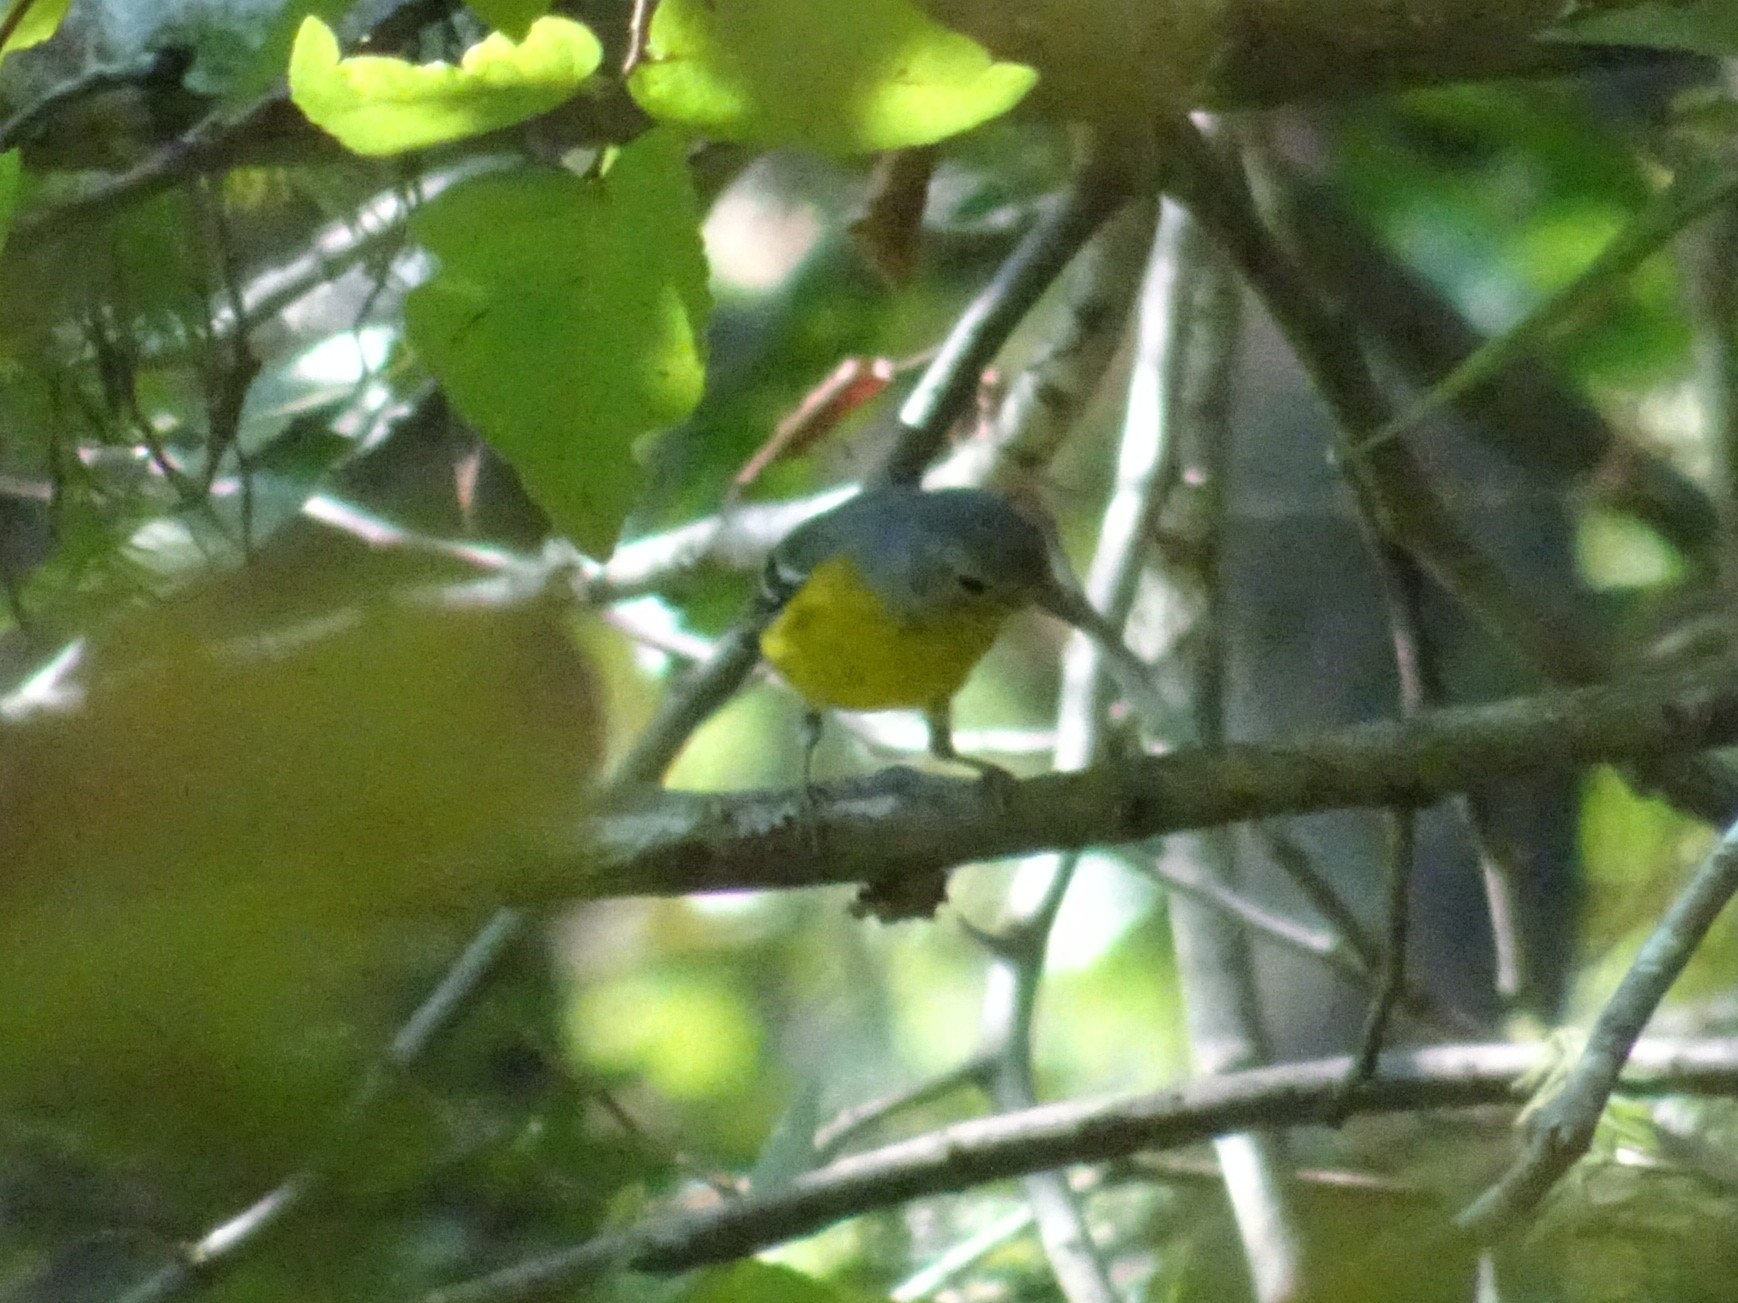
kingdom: Animalia
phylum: Chordata
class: Aves
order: Passeriformes
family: Parulidae
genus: Setophaga
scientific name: Setophaga americana
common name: Northern parula
